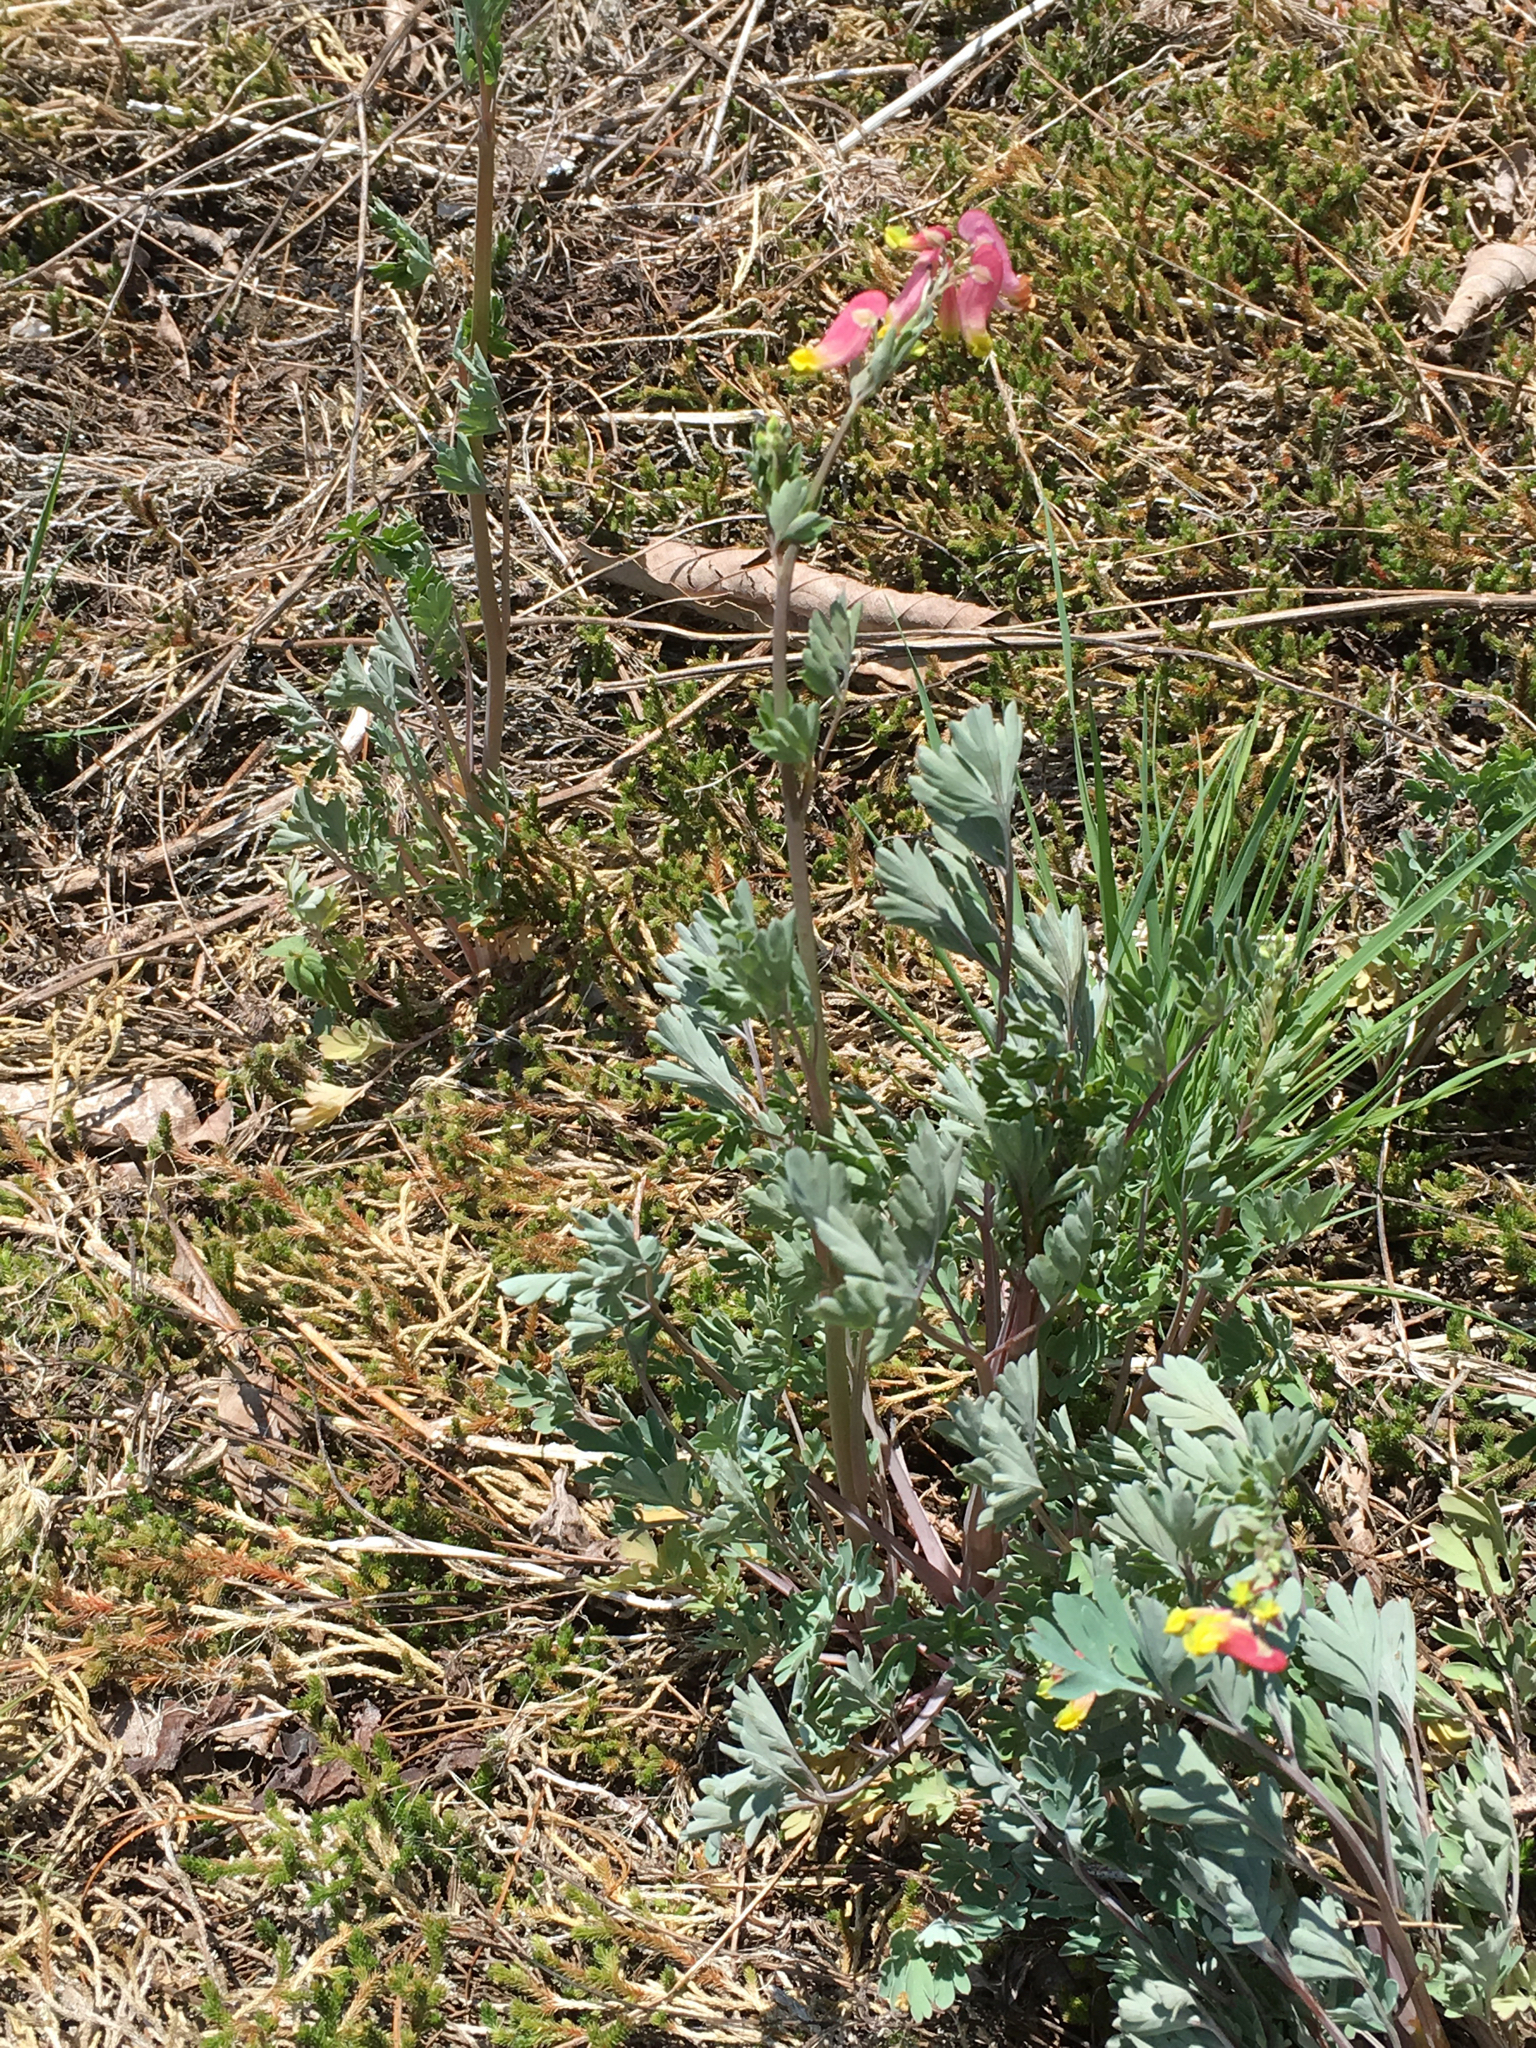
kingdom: Plantae
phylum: Tracheophyta
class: Magnoliopsida
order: Ranunculales
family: Papaveraceae
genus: Capnoides
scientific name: Capnoides sempervirens
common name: Rock harlequin
